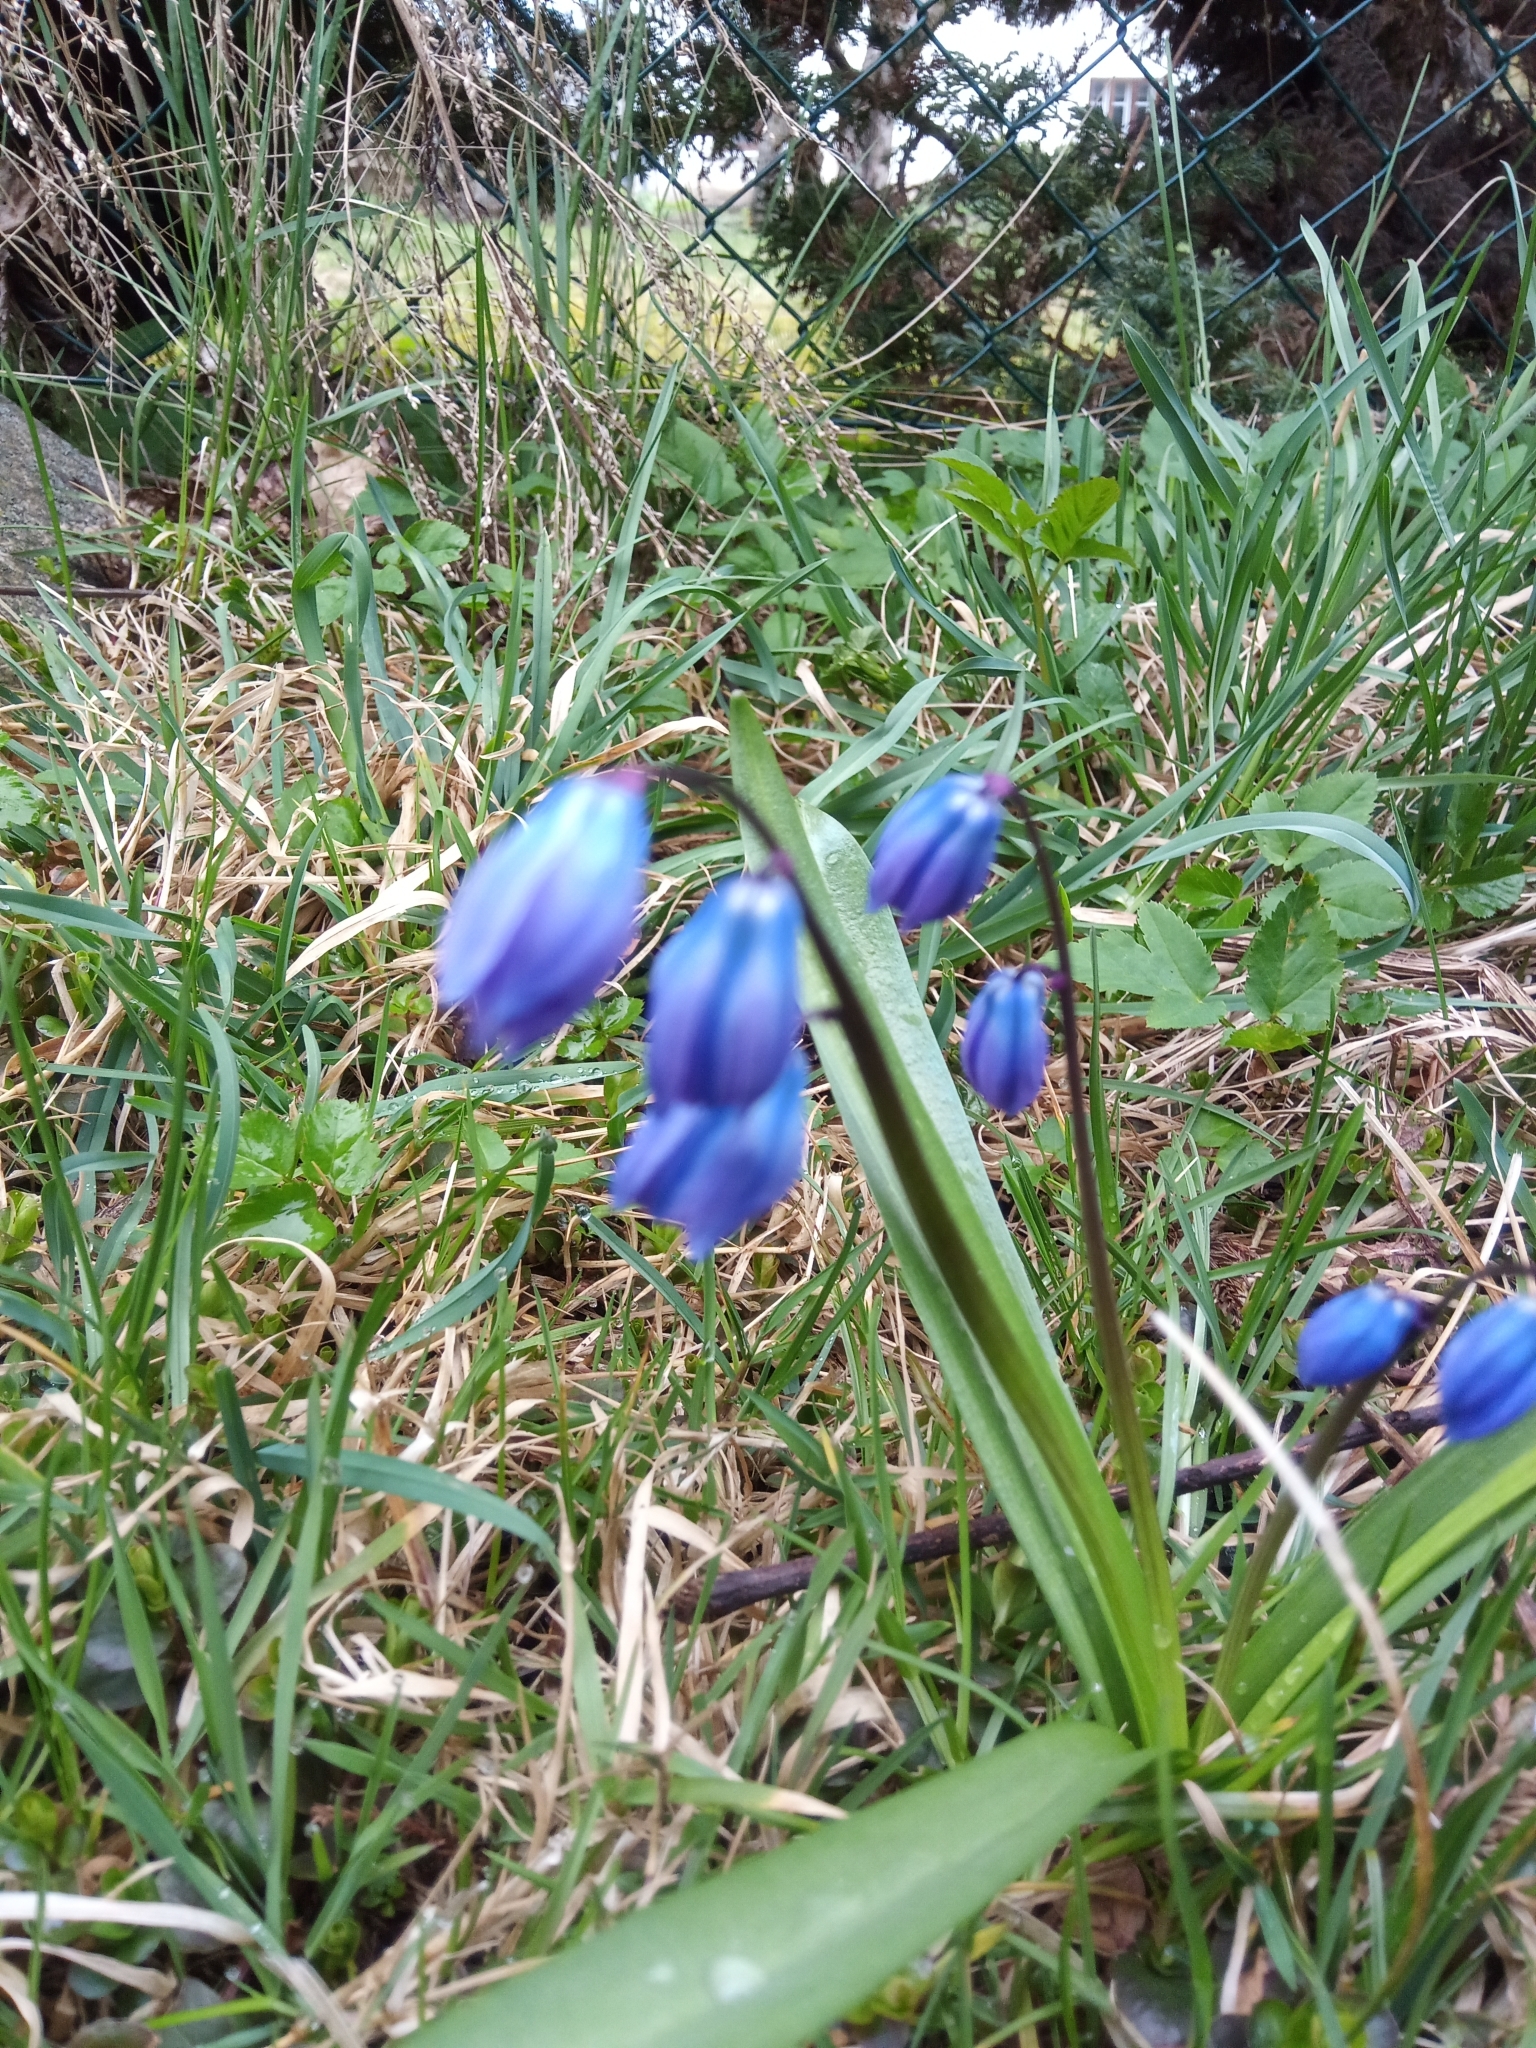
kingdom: Plantae
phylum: Tracheophyta
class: Liliopsida
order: Asparagales
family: Asparagaceae
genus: Scilla
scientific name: Scilla siberica
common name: Siberian squill
